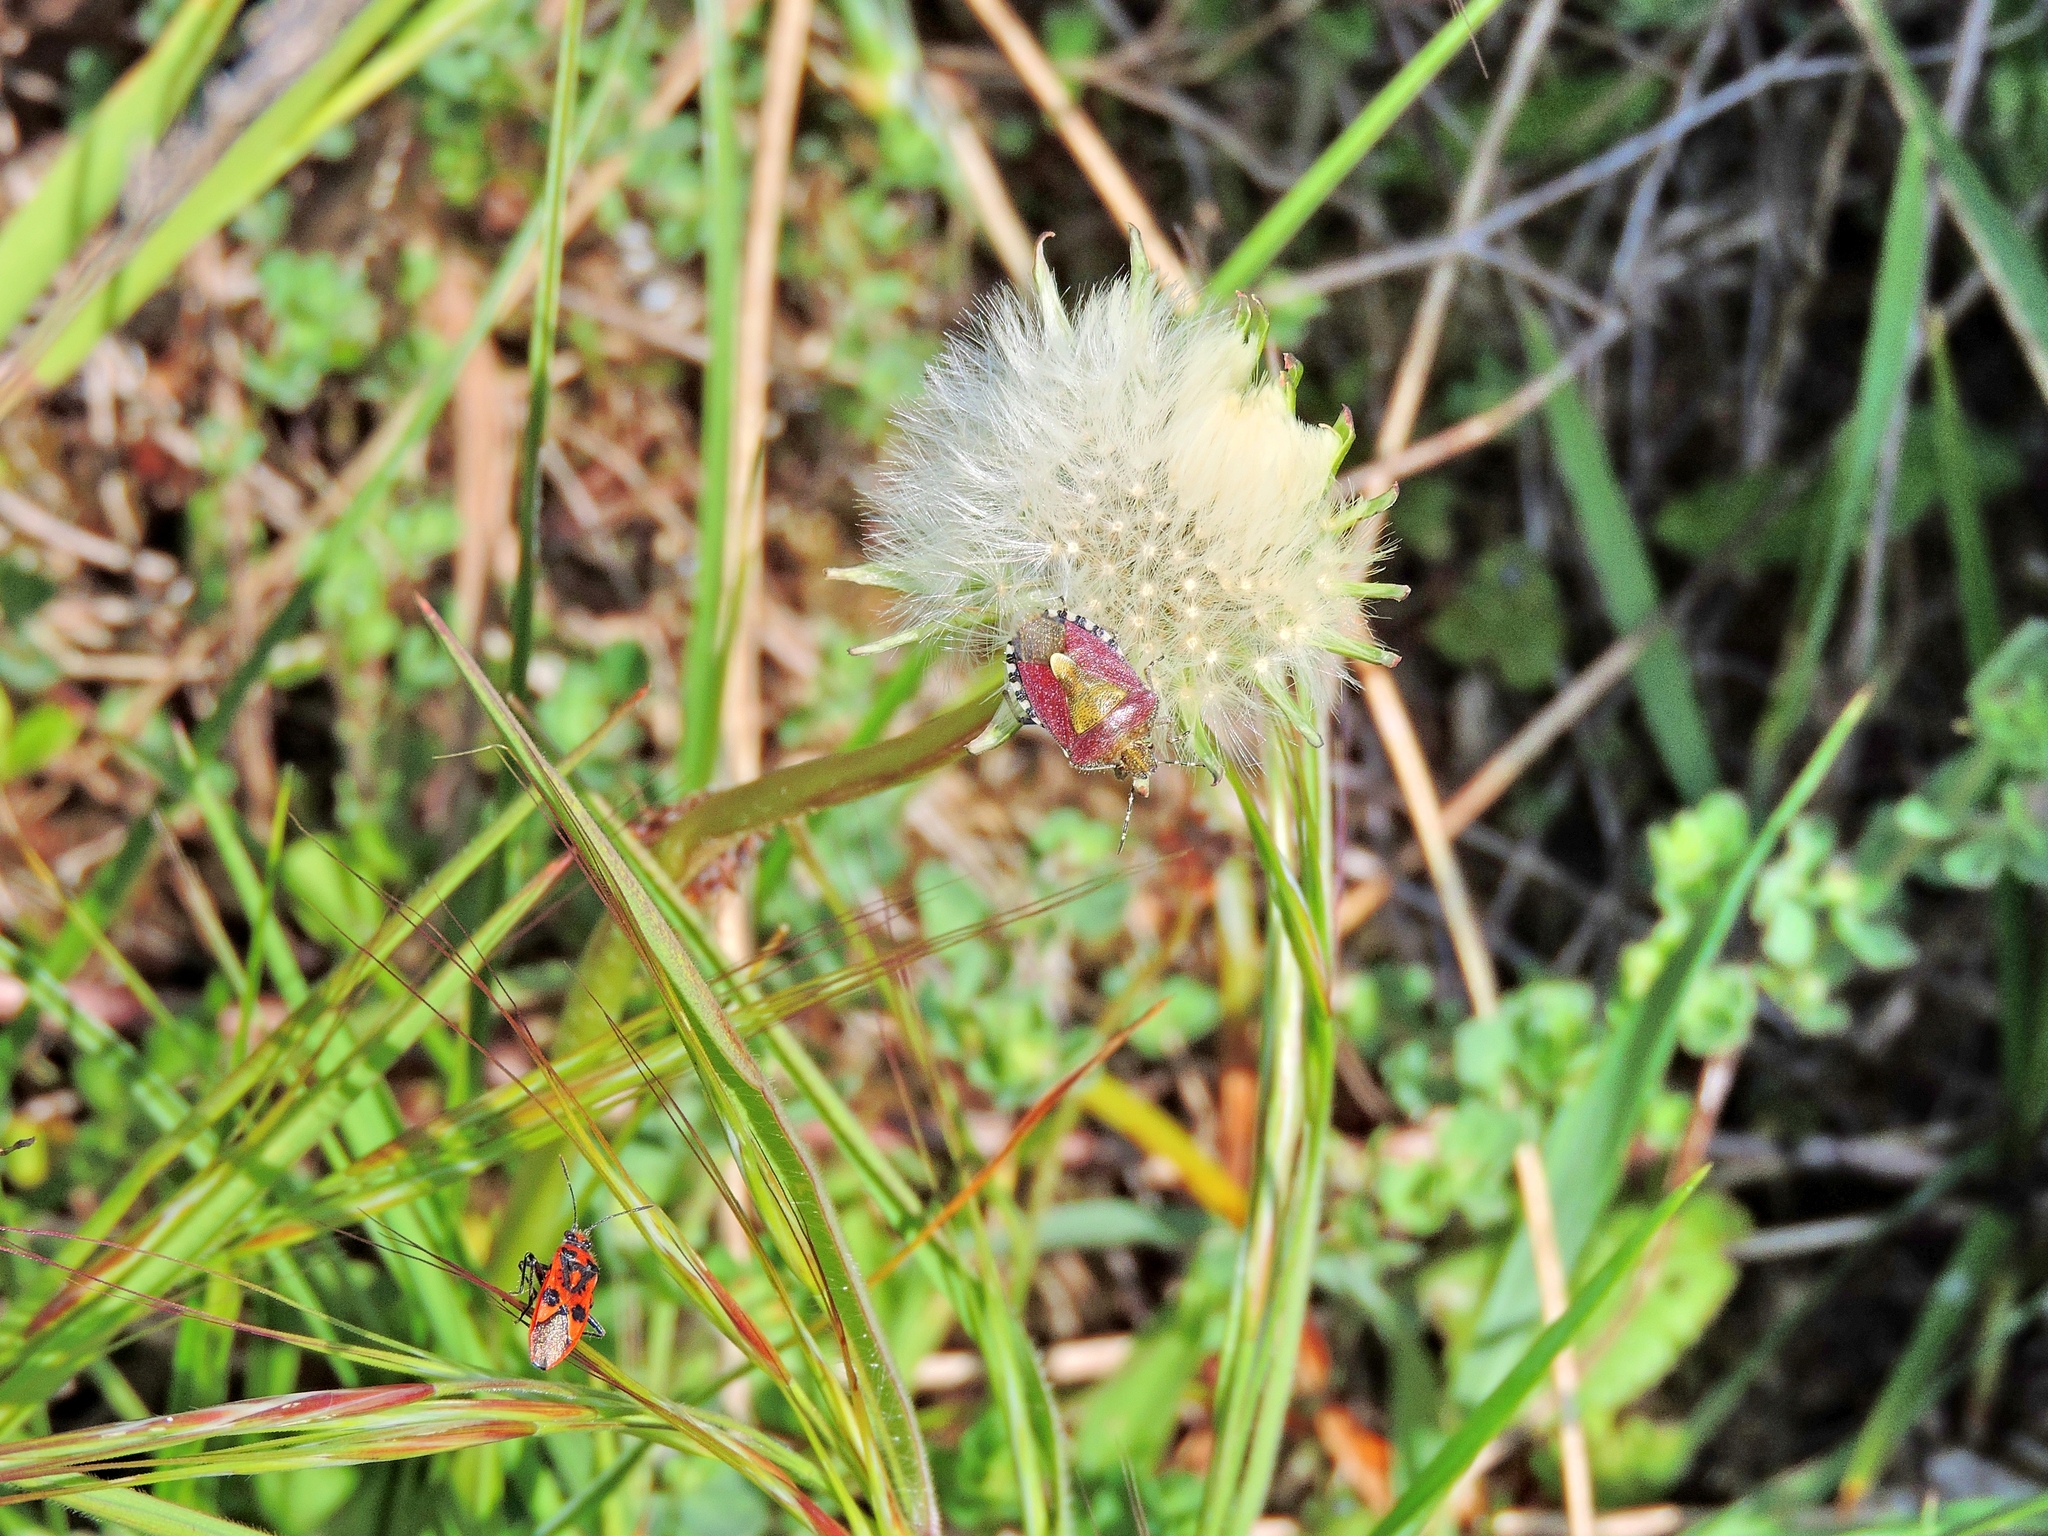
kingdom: Animalia
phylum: Arthropoda
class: Insecta
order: Hemiptera
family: Rhopalidae
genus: Corizus
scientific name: Corizus hyoscyami
